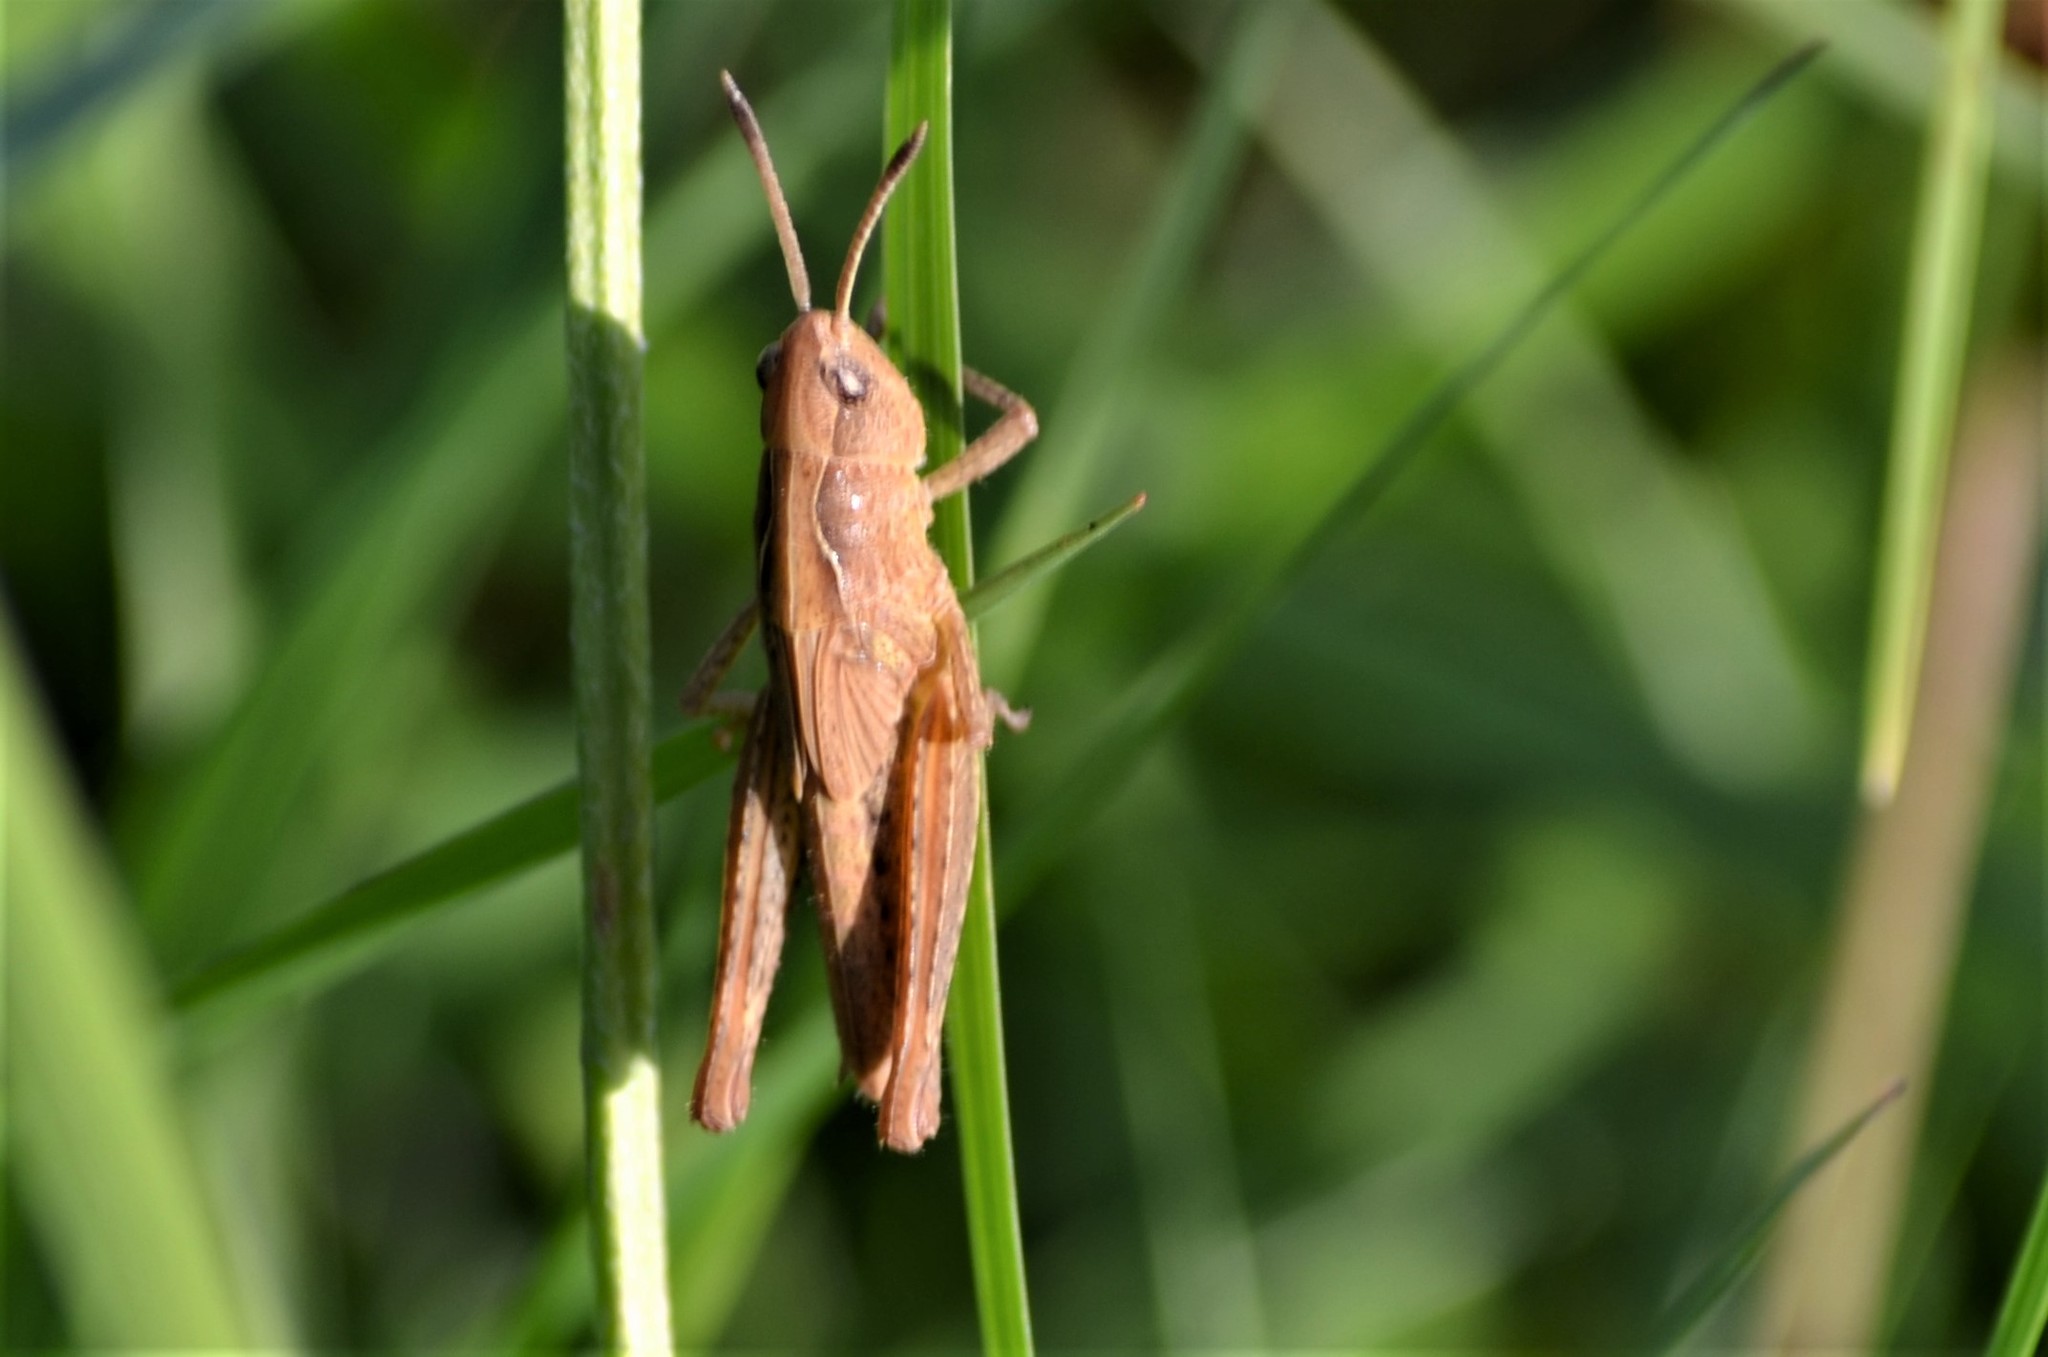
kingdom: Animalia
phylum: Arthropoda
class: Insecta
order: Orthoptera
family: Acrididae
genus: Gomphocerippus
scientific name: Gomphocerippus rufus
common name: Rufous grasshopper
